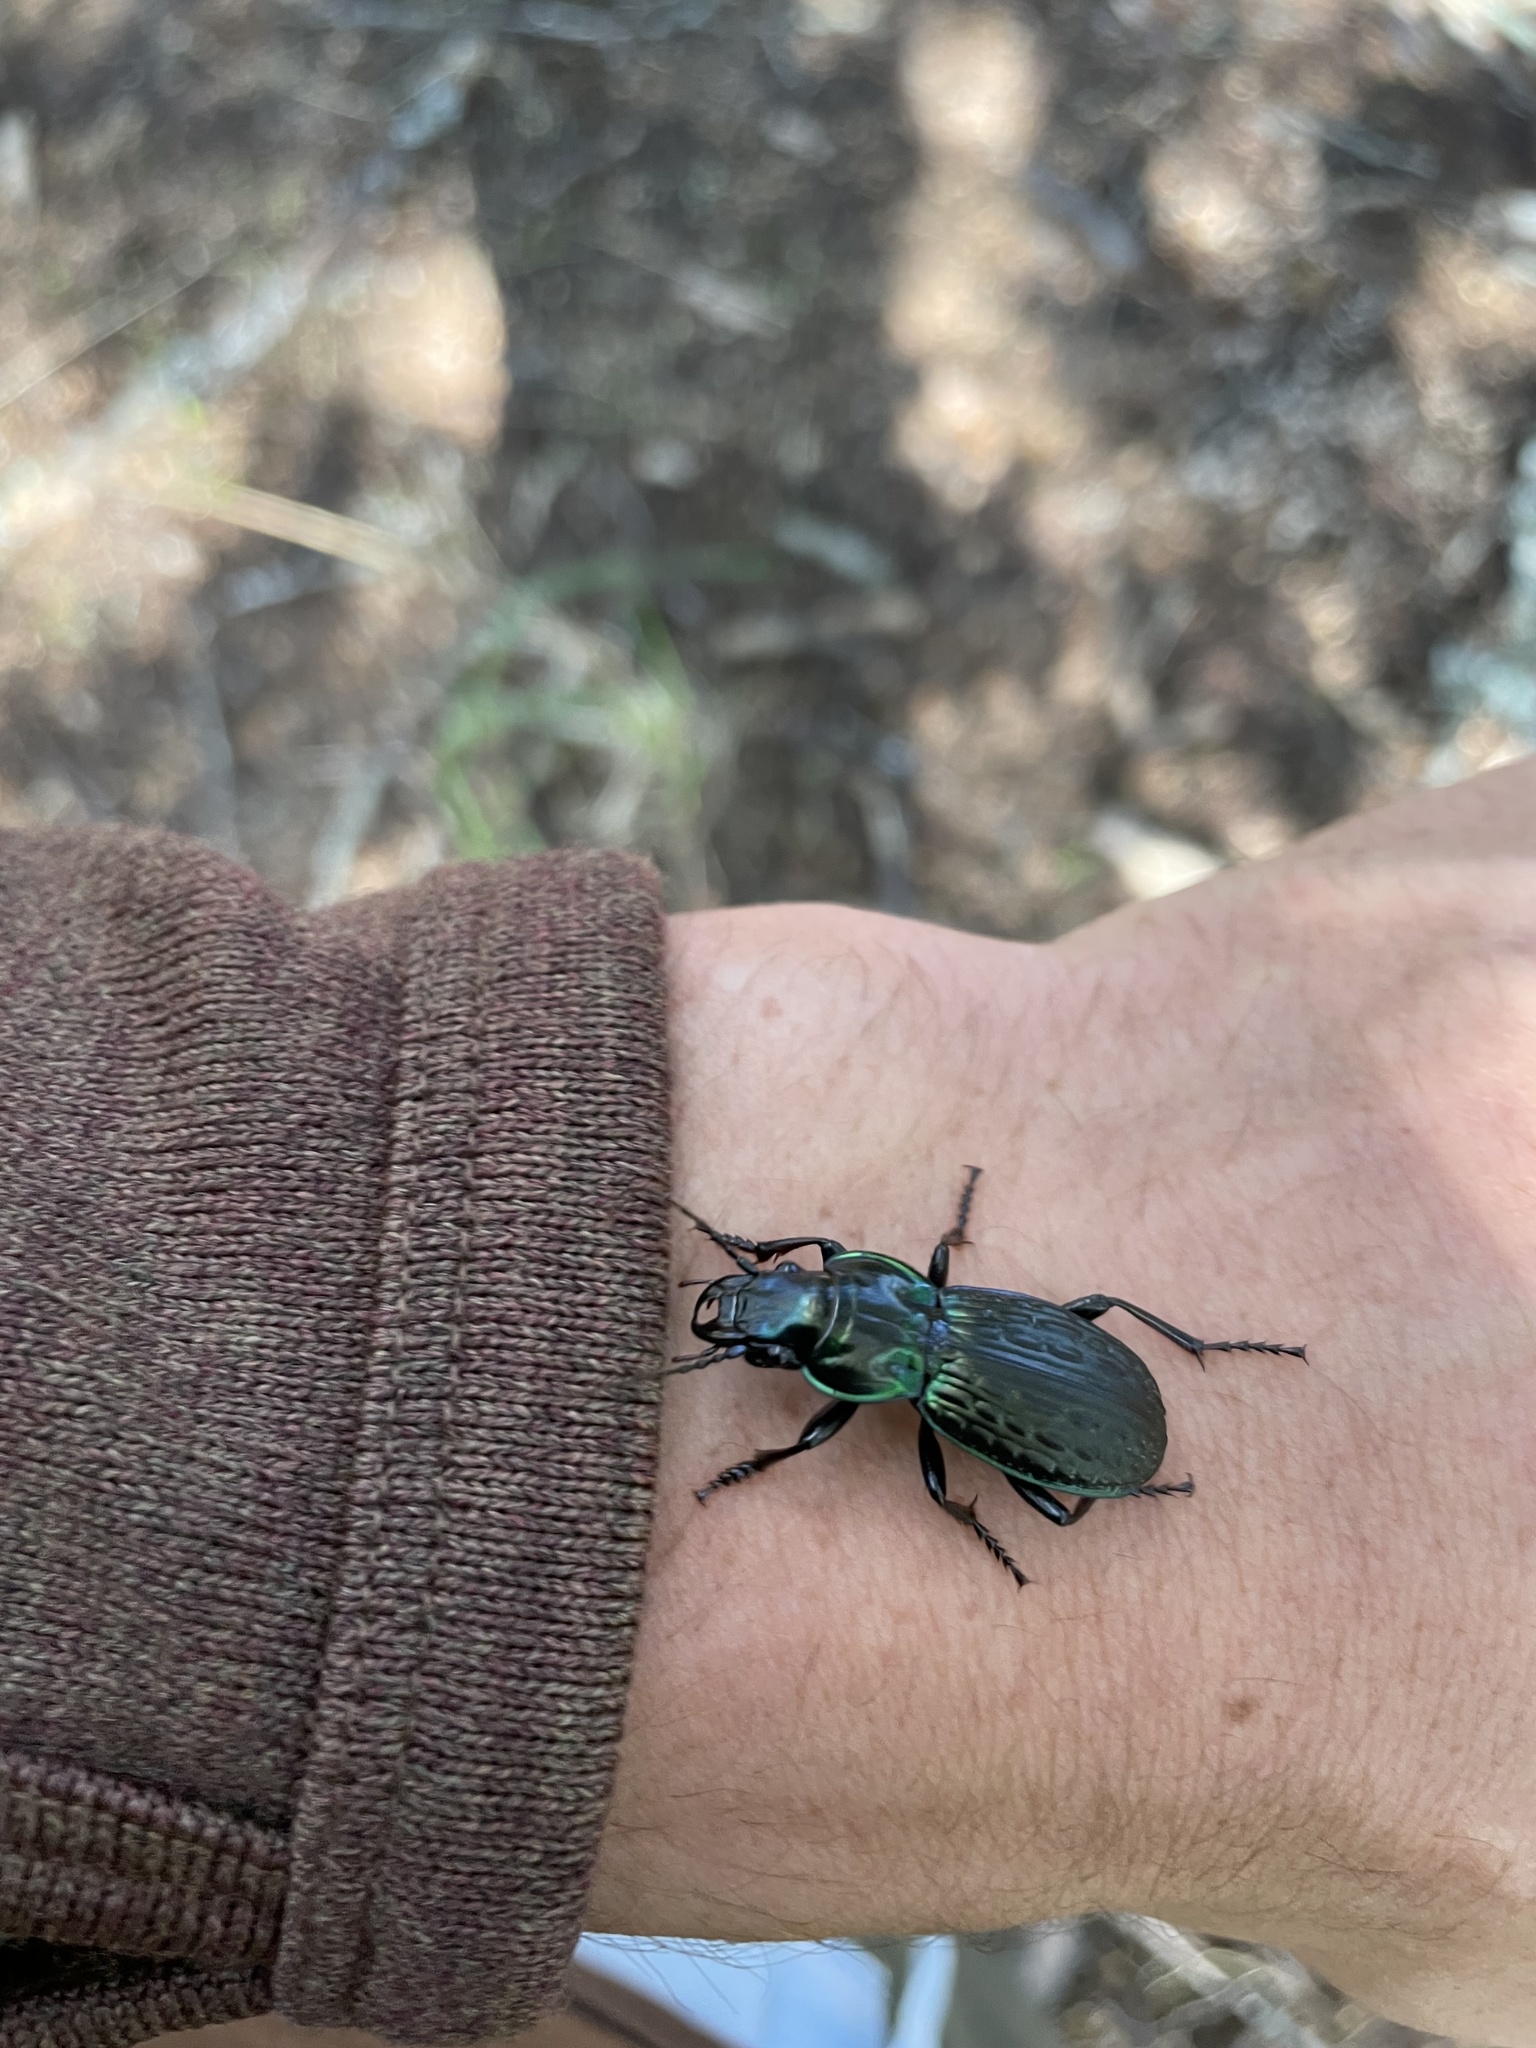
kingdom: Animalia
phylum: Arthropoda
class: Insecta
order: Coleoptera
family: Carabidae
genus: Megadromus
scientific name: Megadromus bullatus
